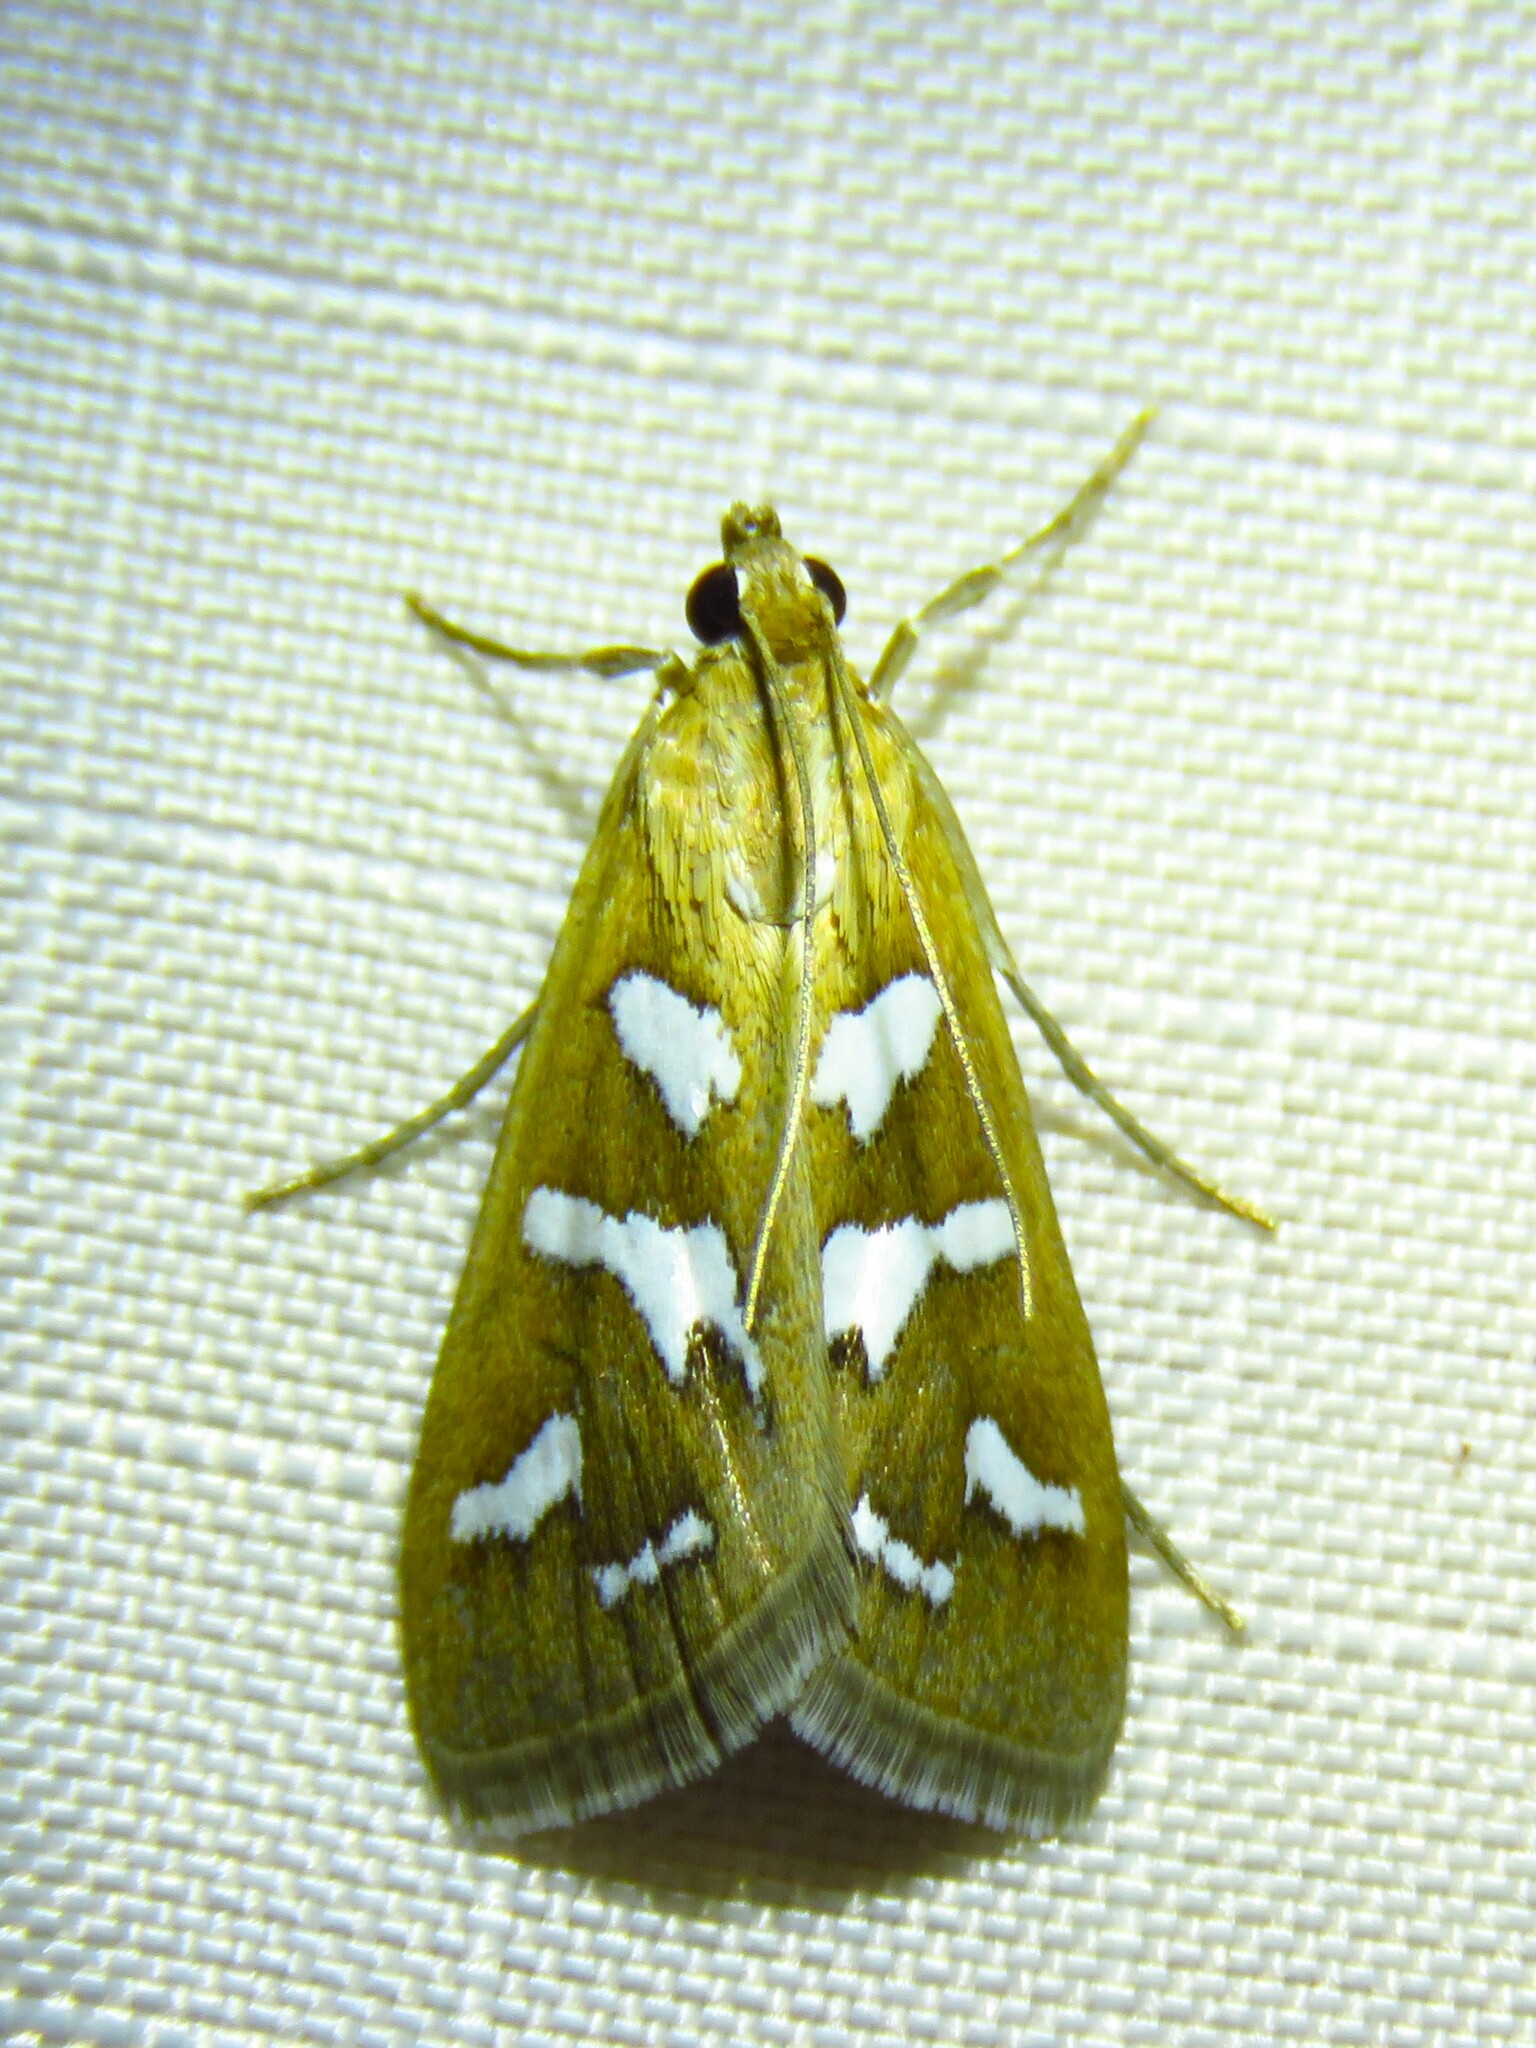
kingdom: Animalia
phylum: Arthropoda
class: Insecta
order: Lepidoptera
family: Crambidae
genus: Diastictis
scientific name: Diastictis fracturalis
